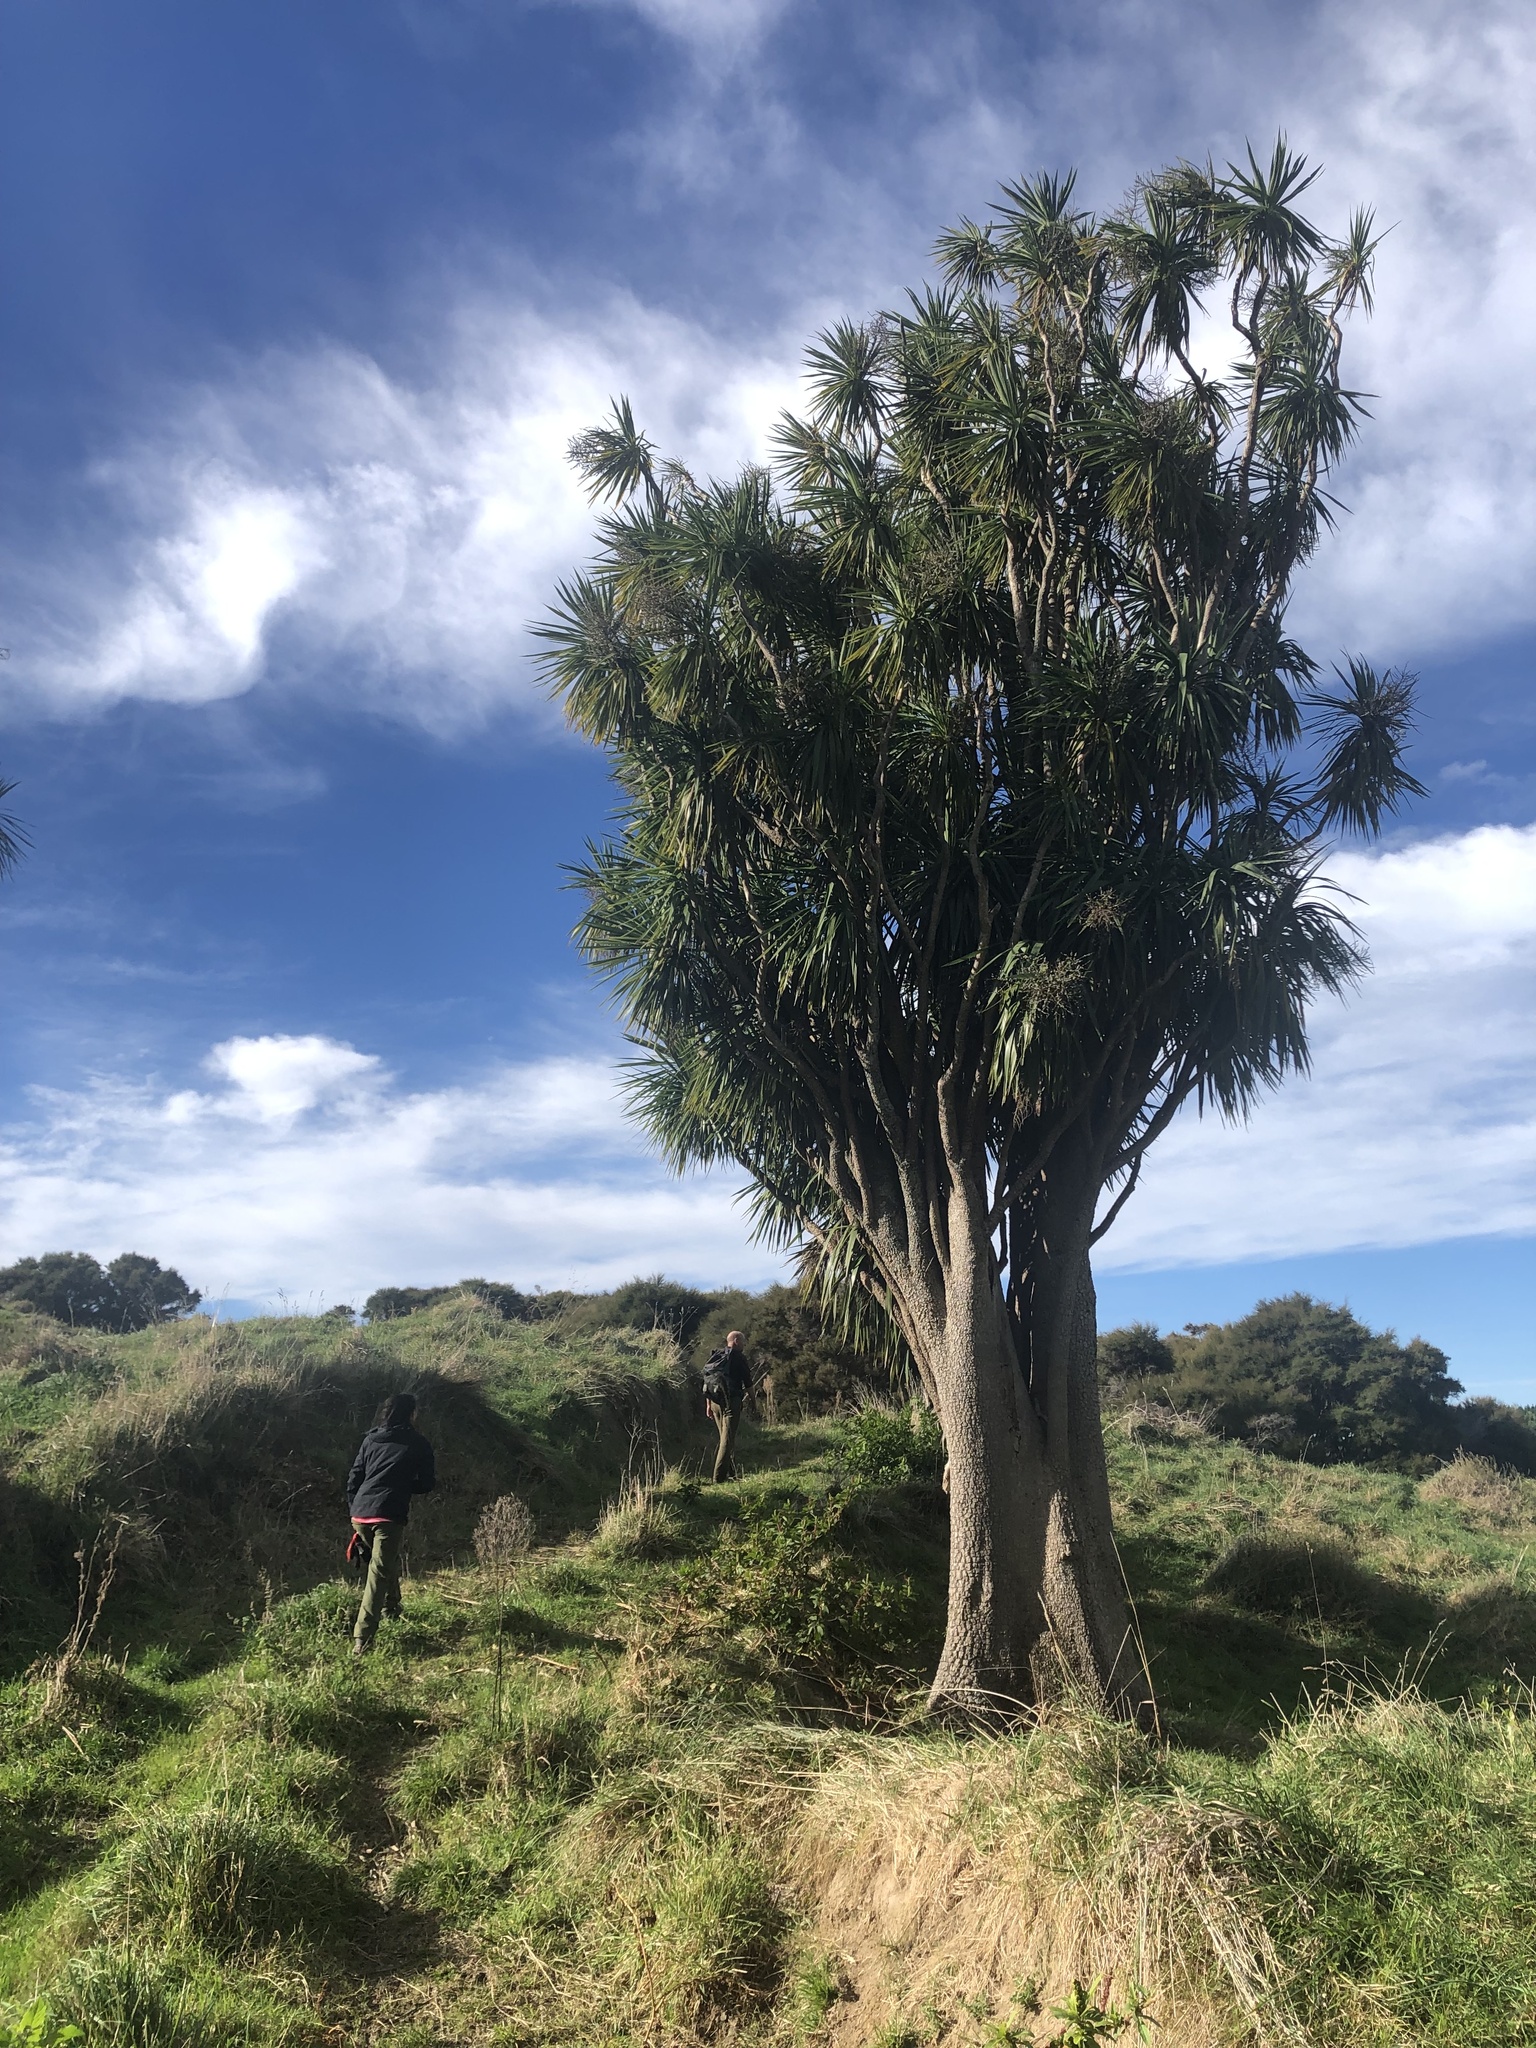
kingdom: Plantae
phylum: Tracheophyta
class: Liliopsida
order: Asparagales
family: Asparagaceae
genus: Cordyline
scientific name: Cordyline australis
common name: Cabbage-palm
